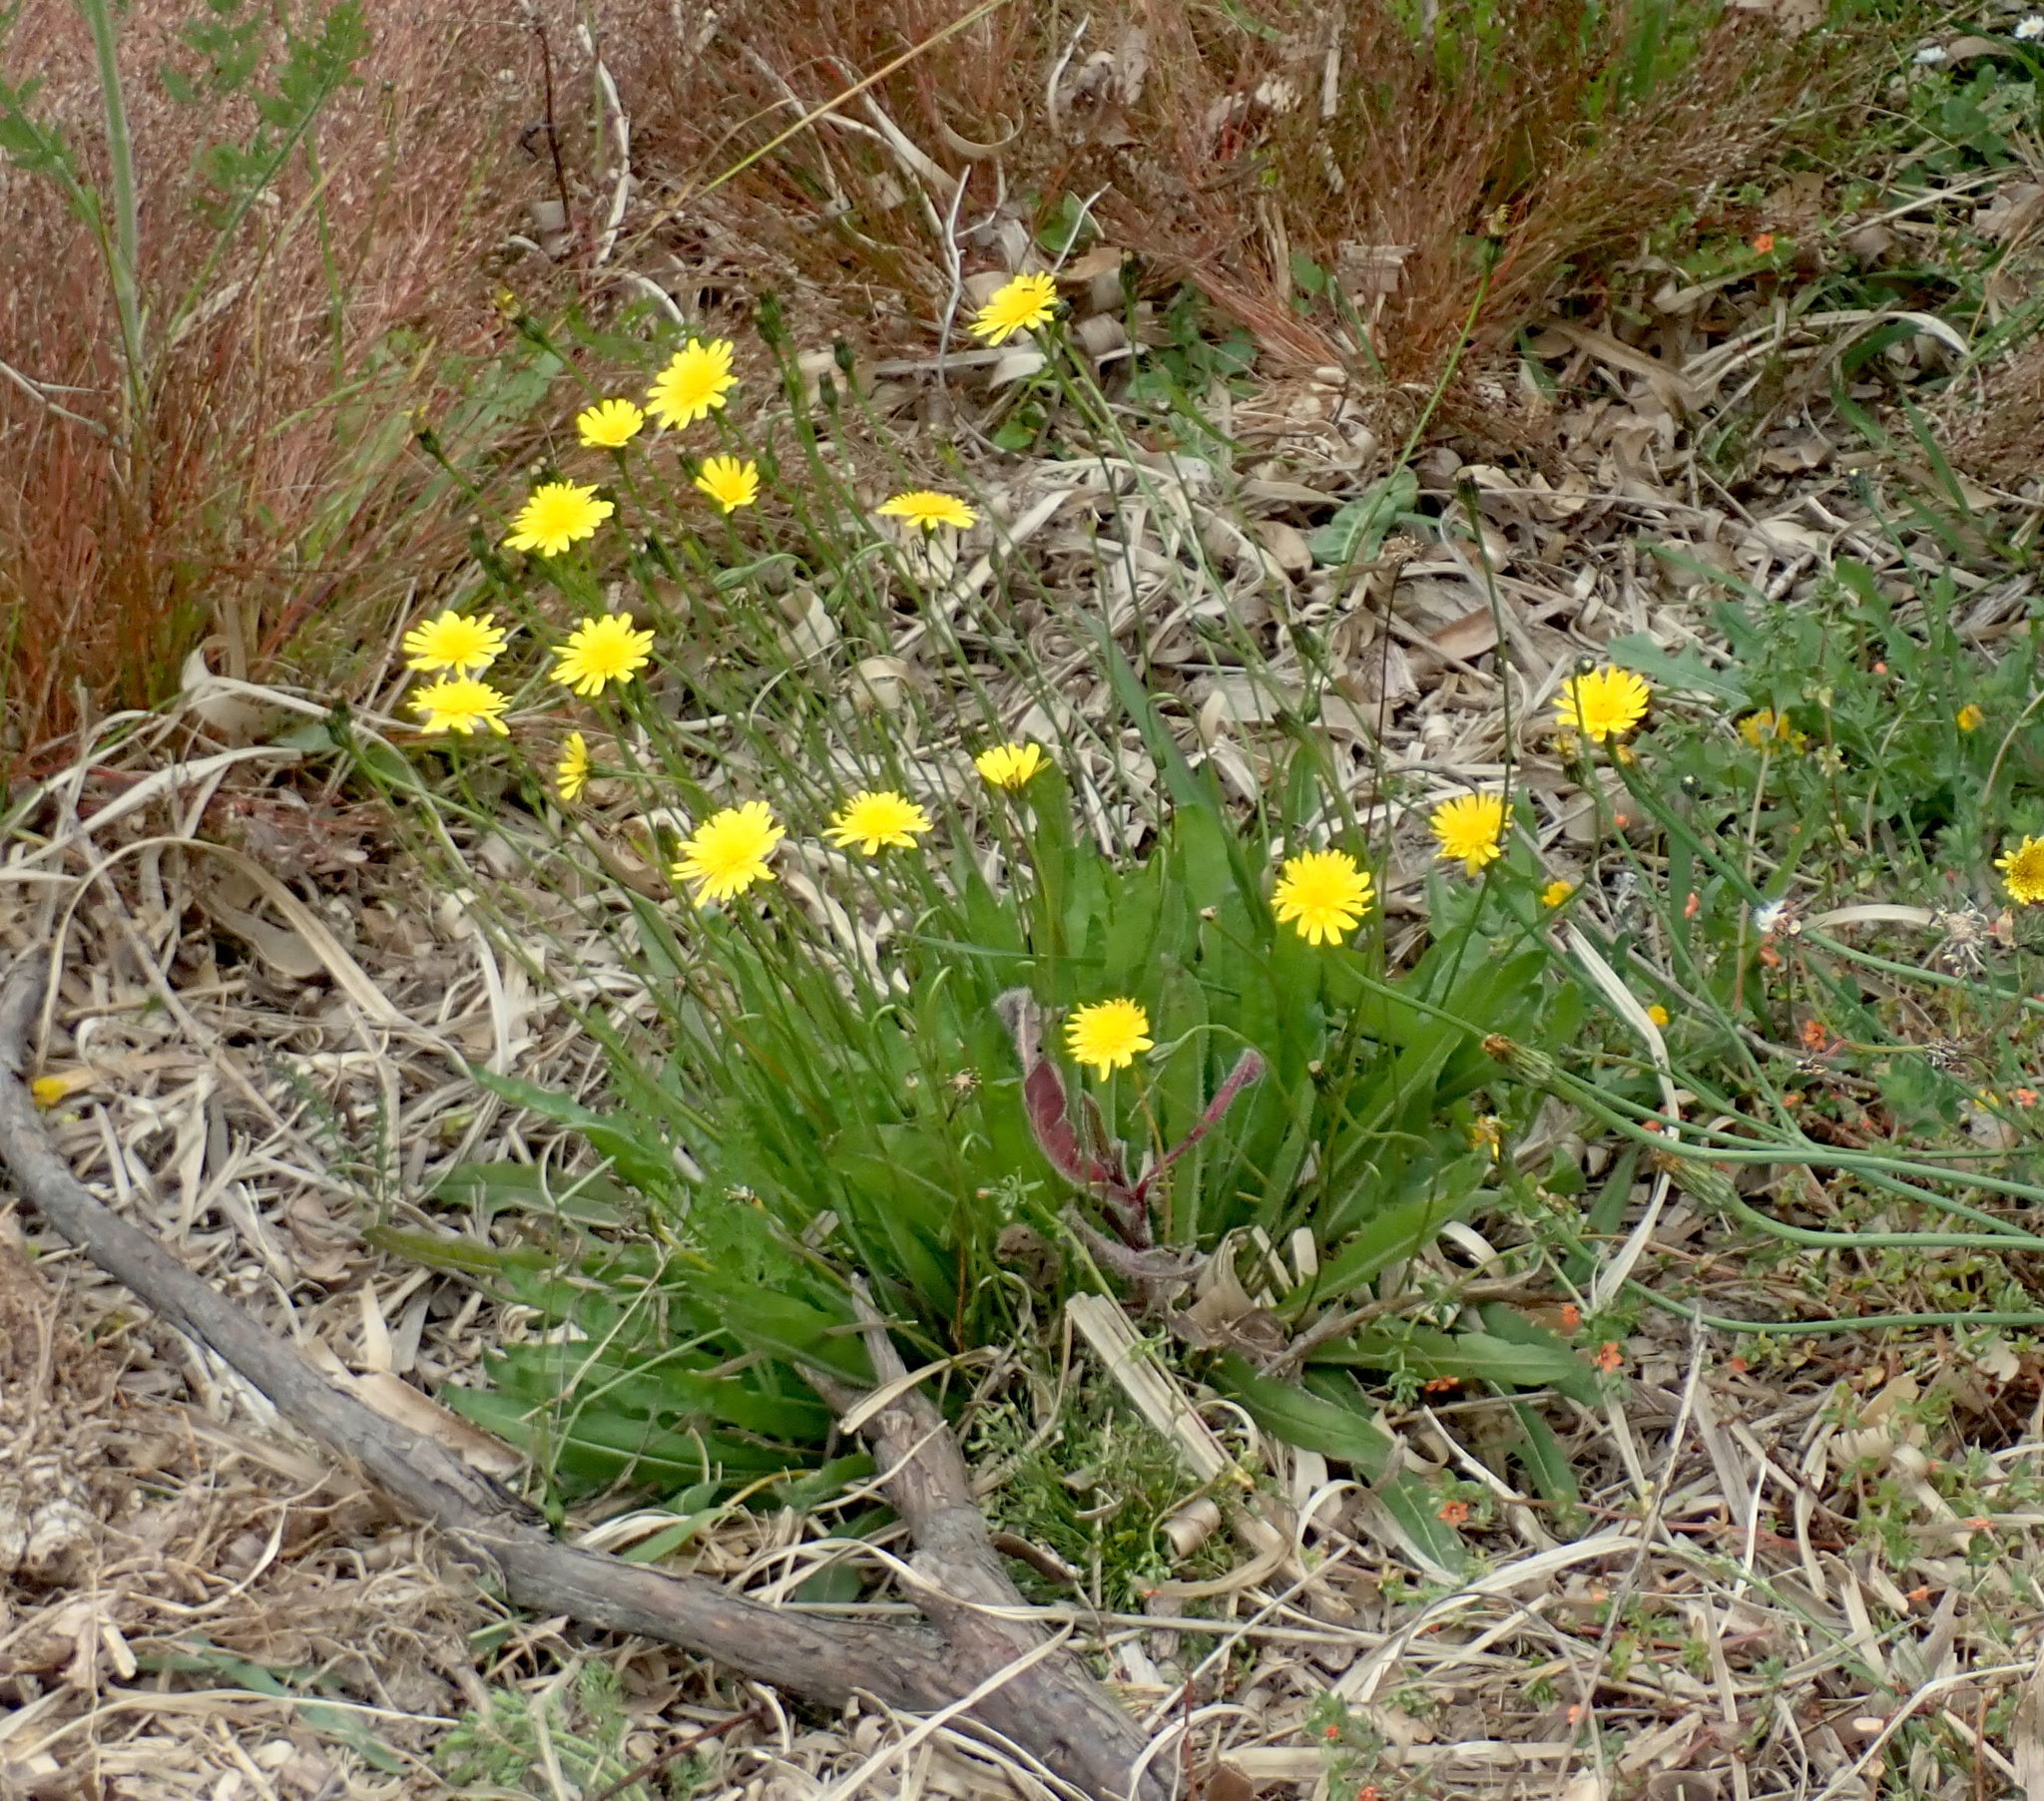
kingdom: Plantae
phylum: Tracheophyta
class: Magnoliopsida
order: Asterales
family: Asteraceae
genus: Hypochaeris
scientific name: Hypochaeris radicata
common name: Flatweed
